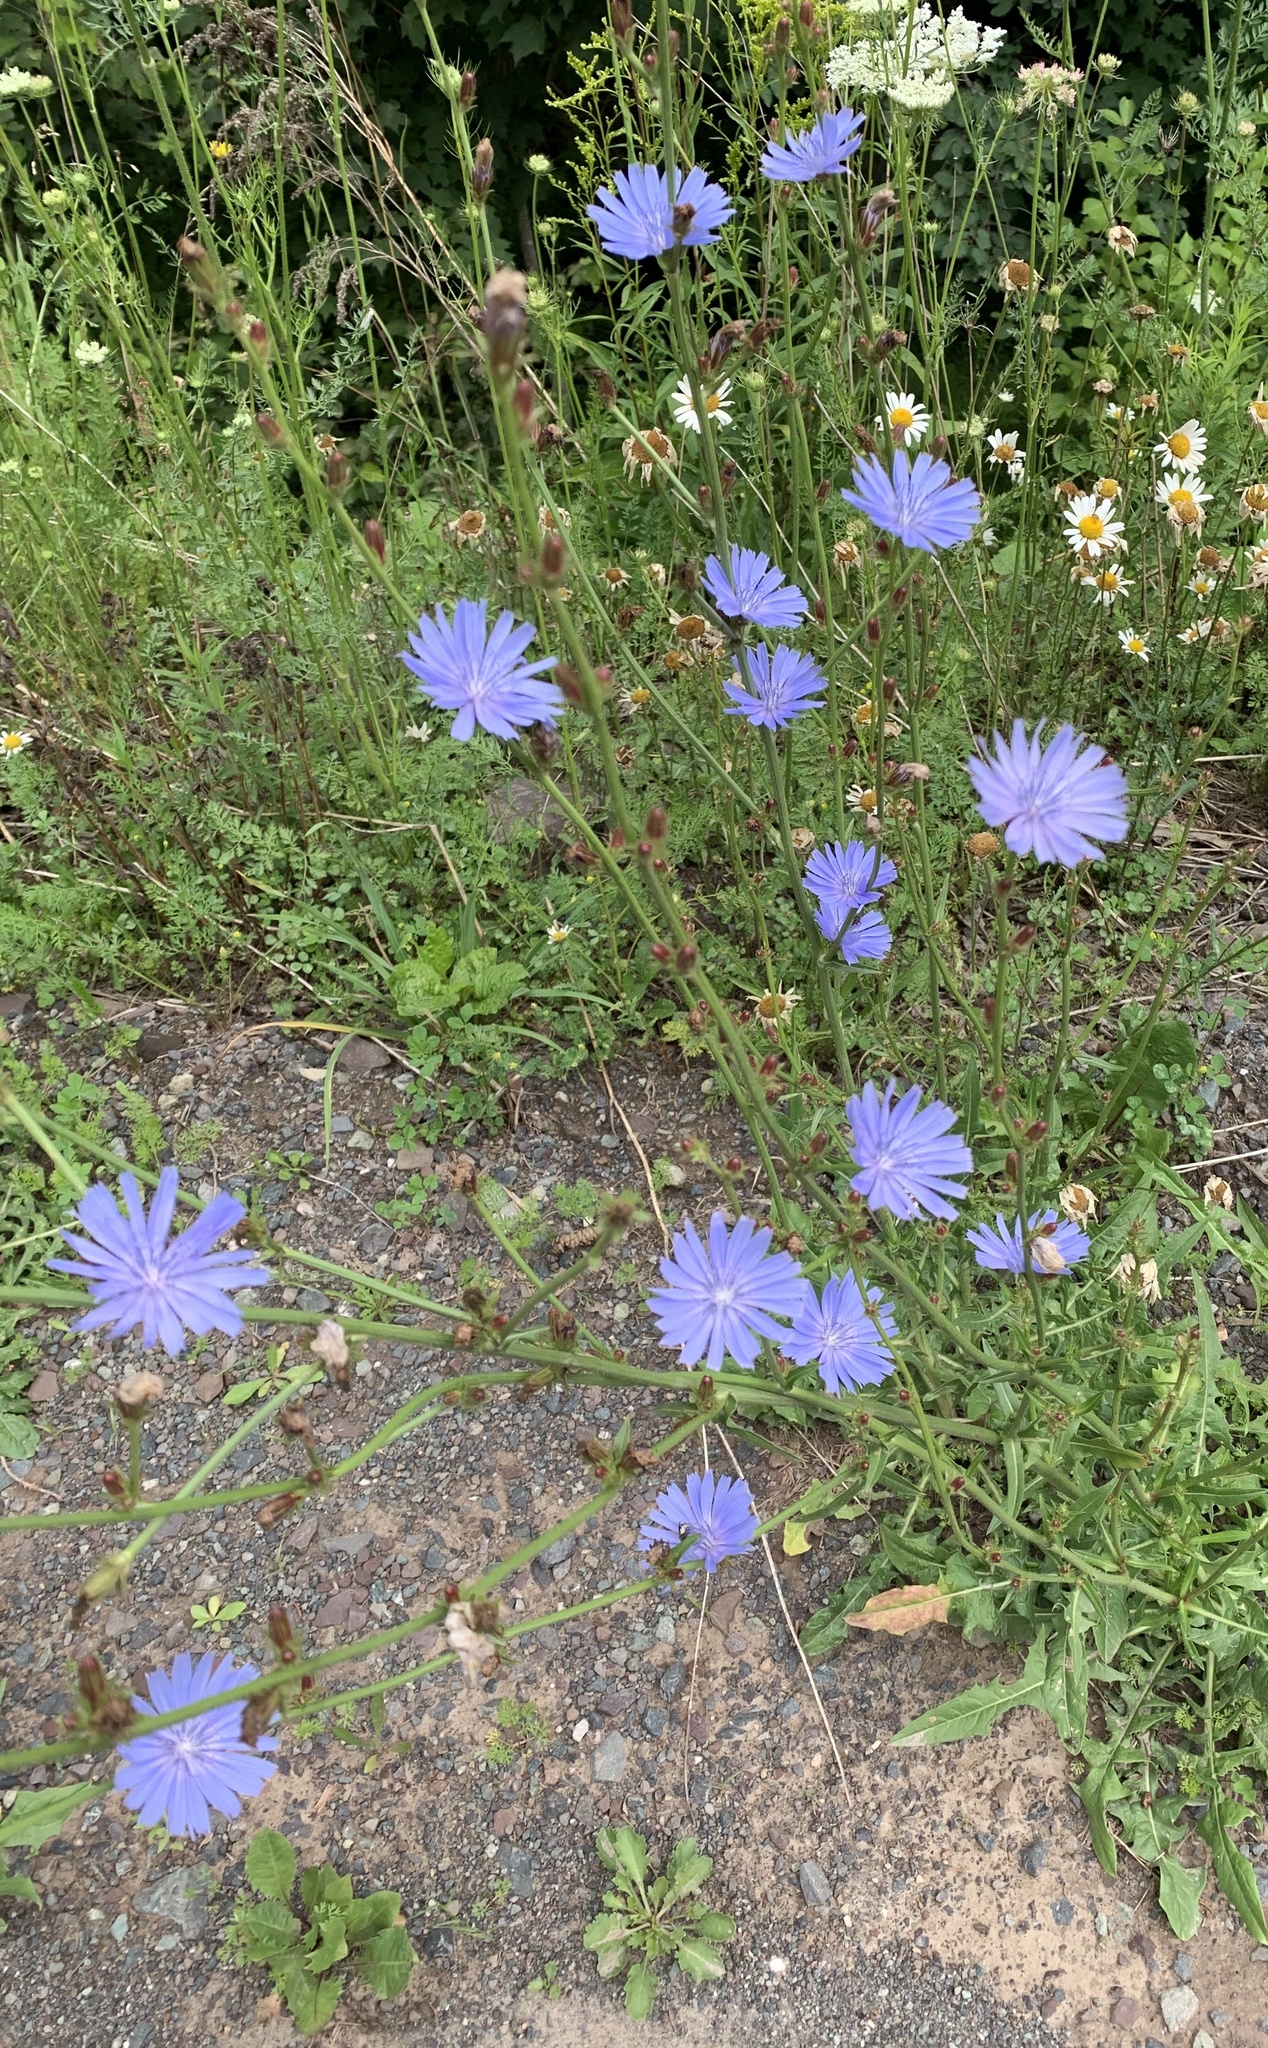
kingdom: Plantae
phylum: Tracheophyta
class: Magnoliopsida
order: Asterales
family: Asteraceae
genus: Cichorium
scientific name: Cichorium intybus
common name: Chicory
